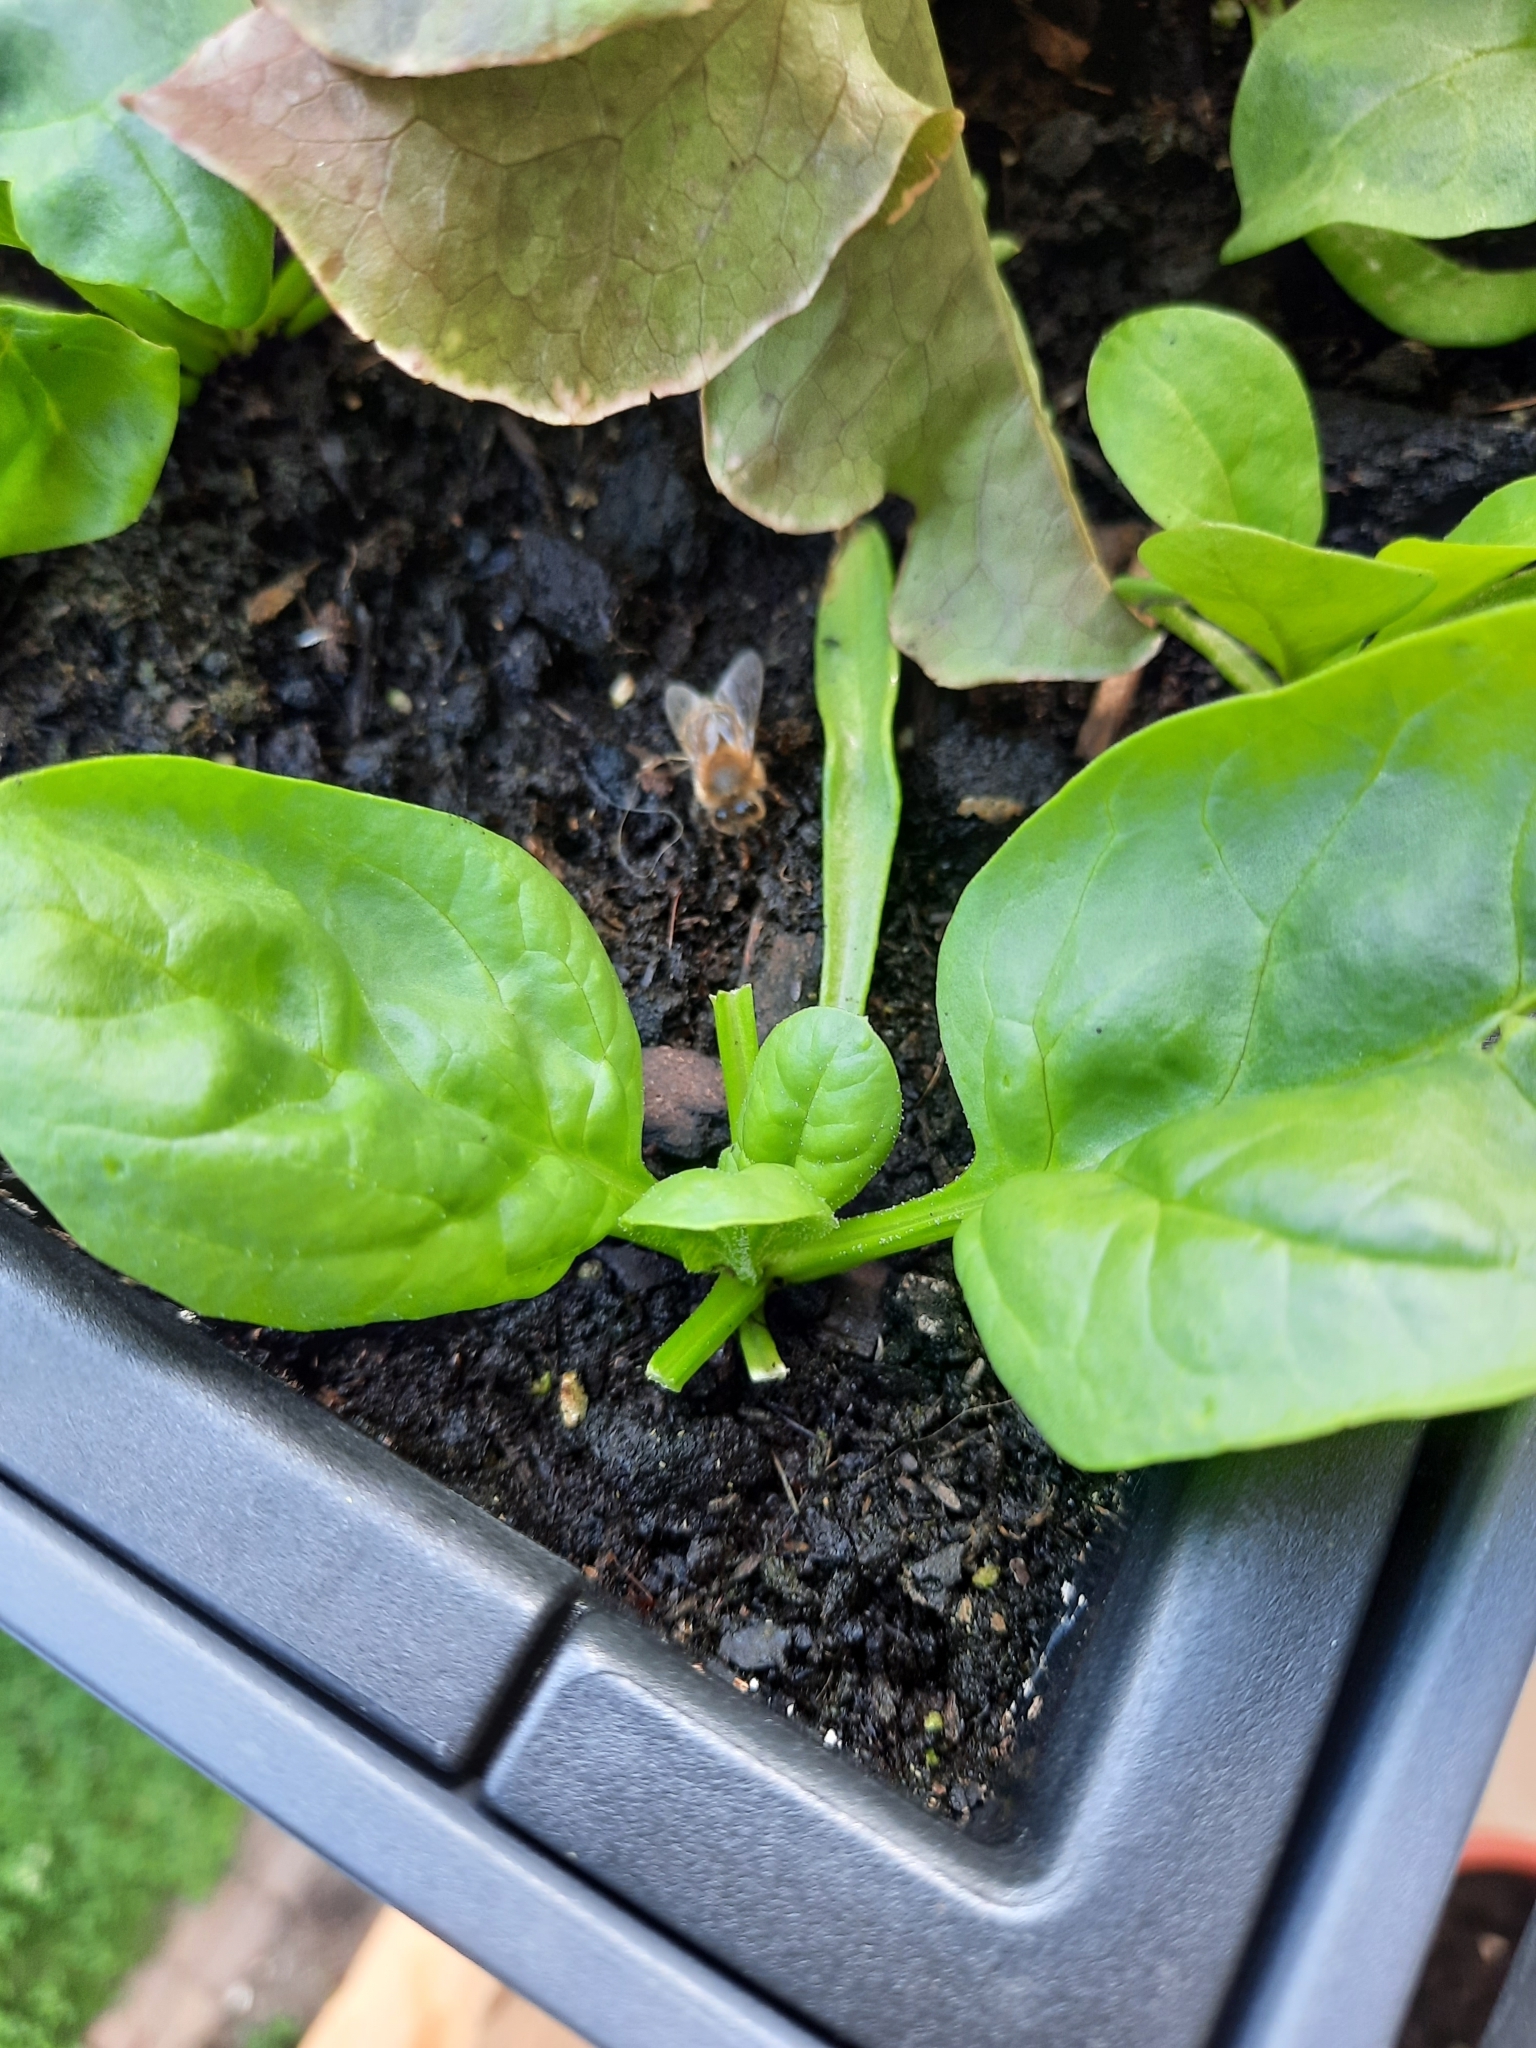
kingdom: Animalia
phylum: Arthropoda
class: Insecta
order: Hymenoptera
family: Apidae
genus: Apis
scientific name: Apis mellifera
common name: Honey bee
